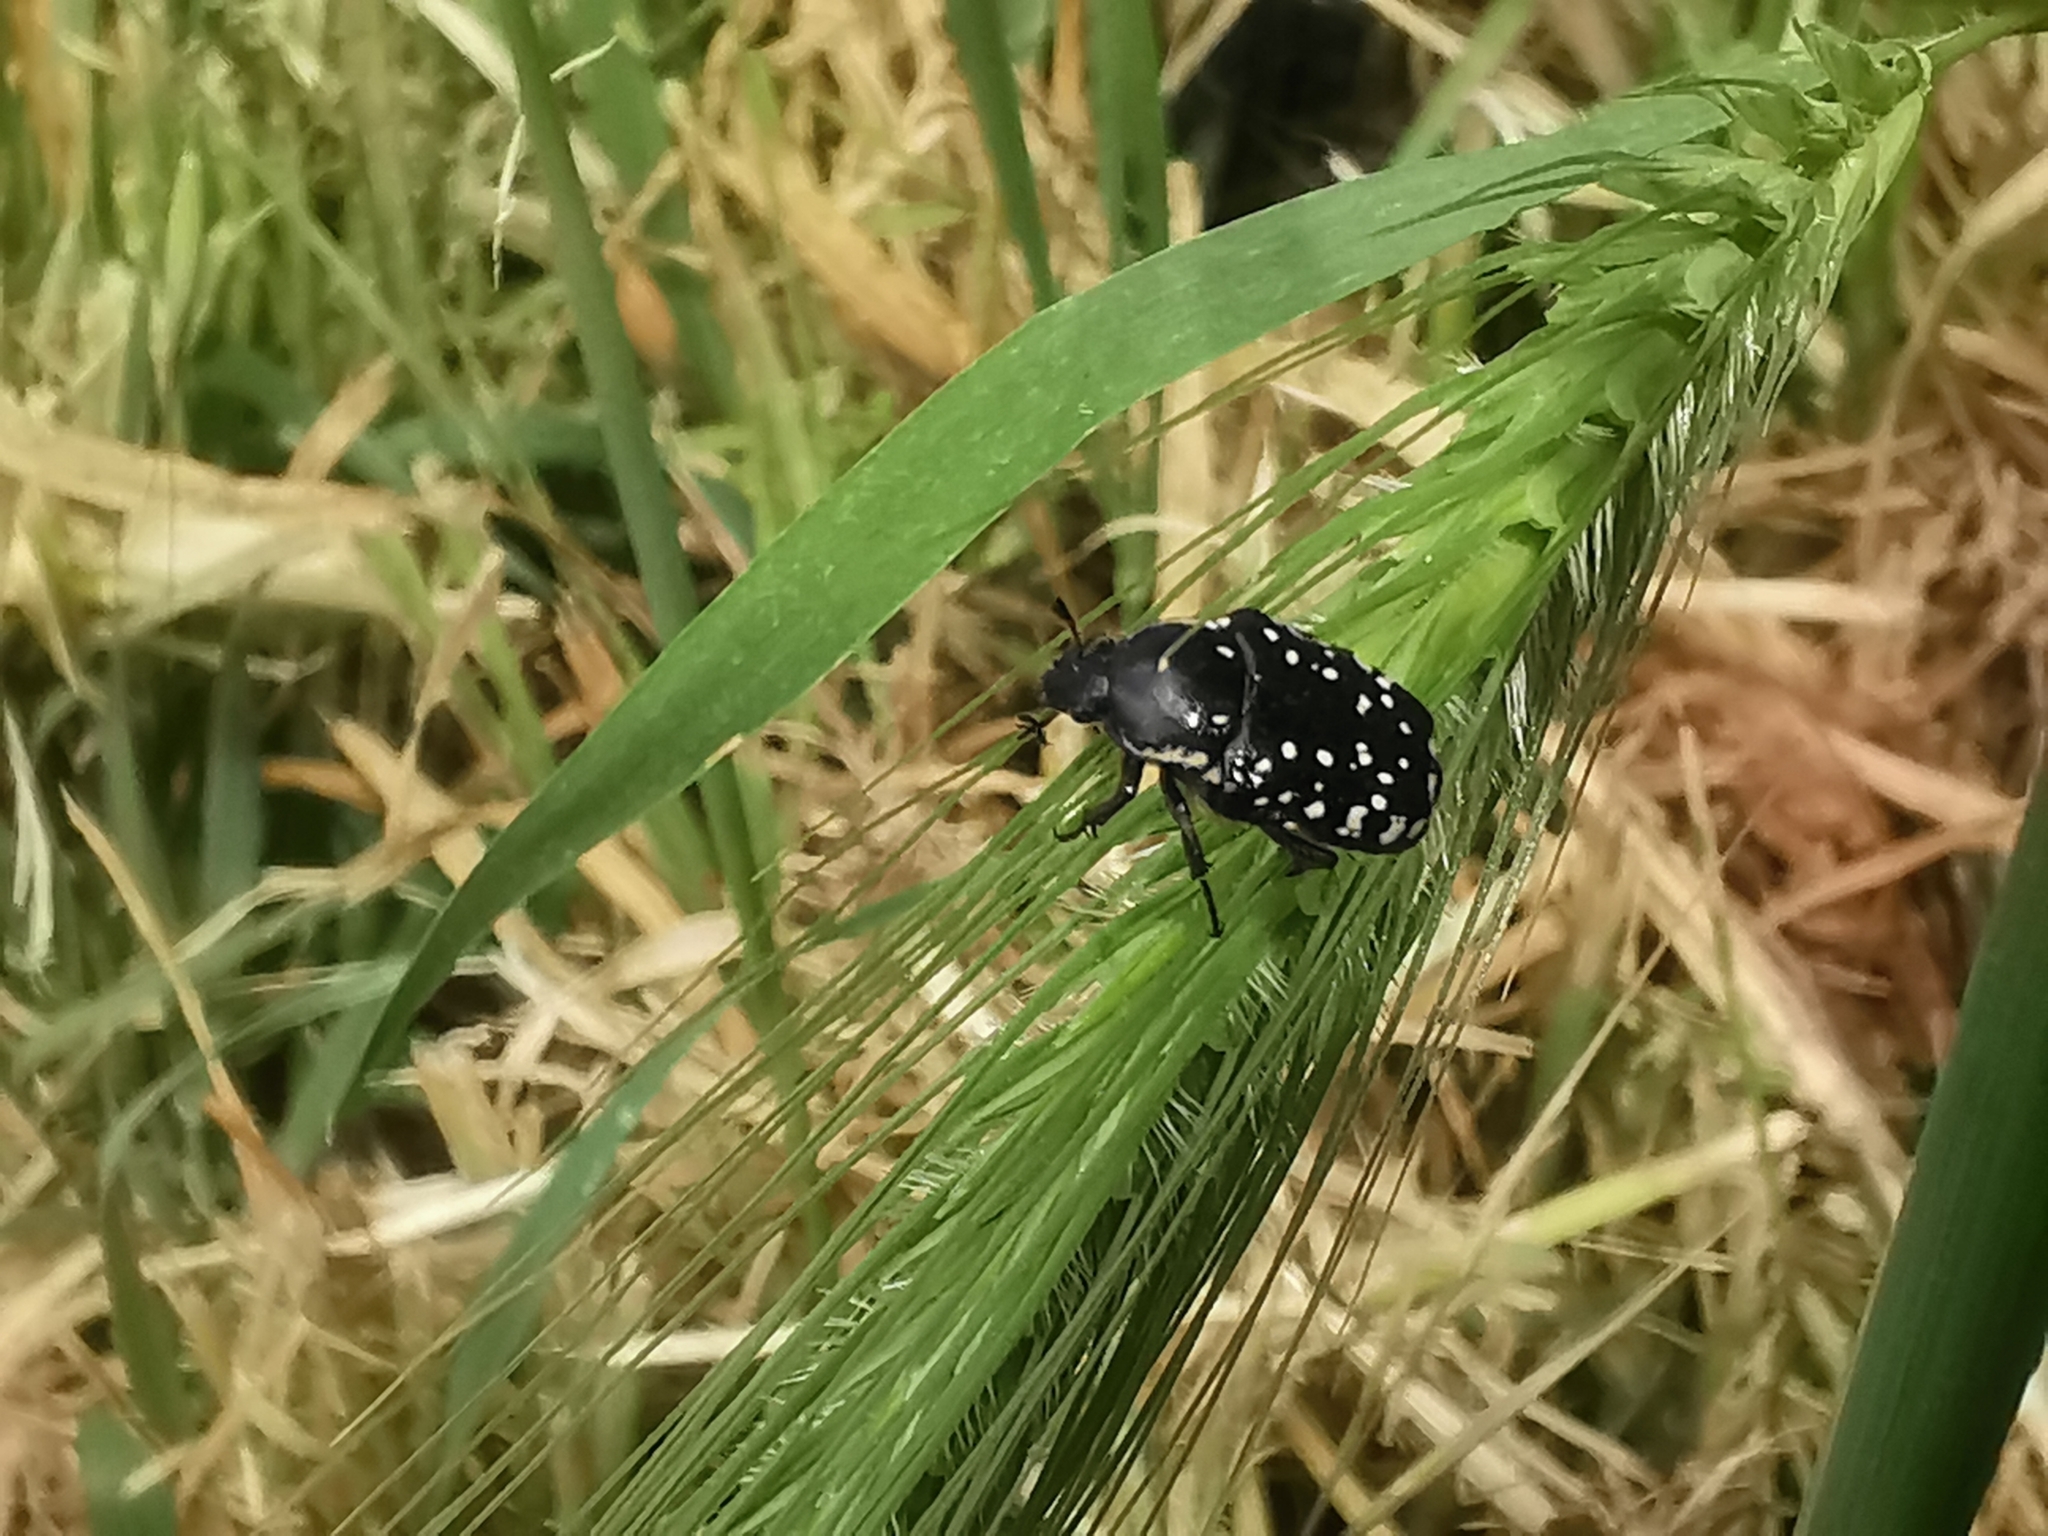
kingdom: Animalia
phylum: Arthropoda
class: Insecta
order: Coleoptera
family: Scarabaeidae
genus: Oxythyrea
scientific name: Oxythyrea cinctella
